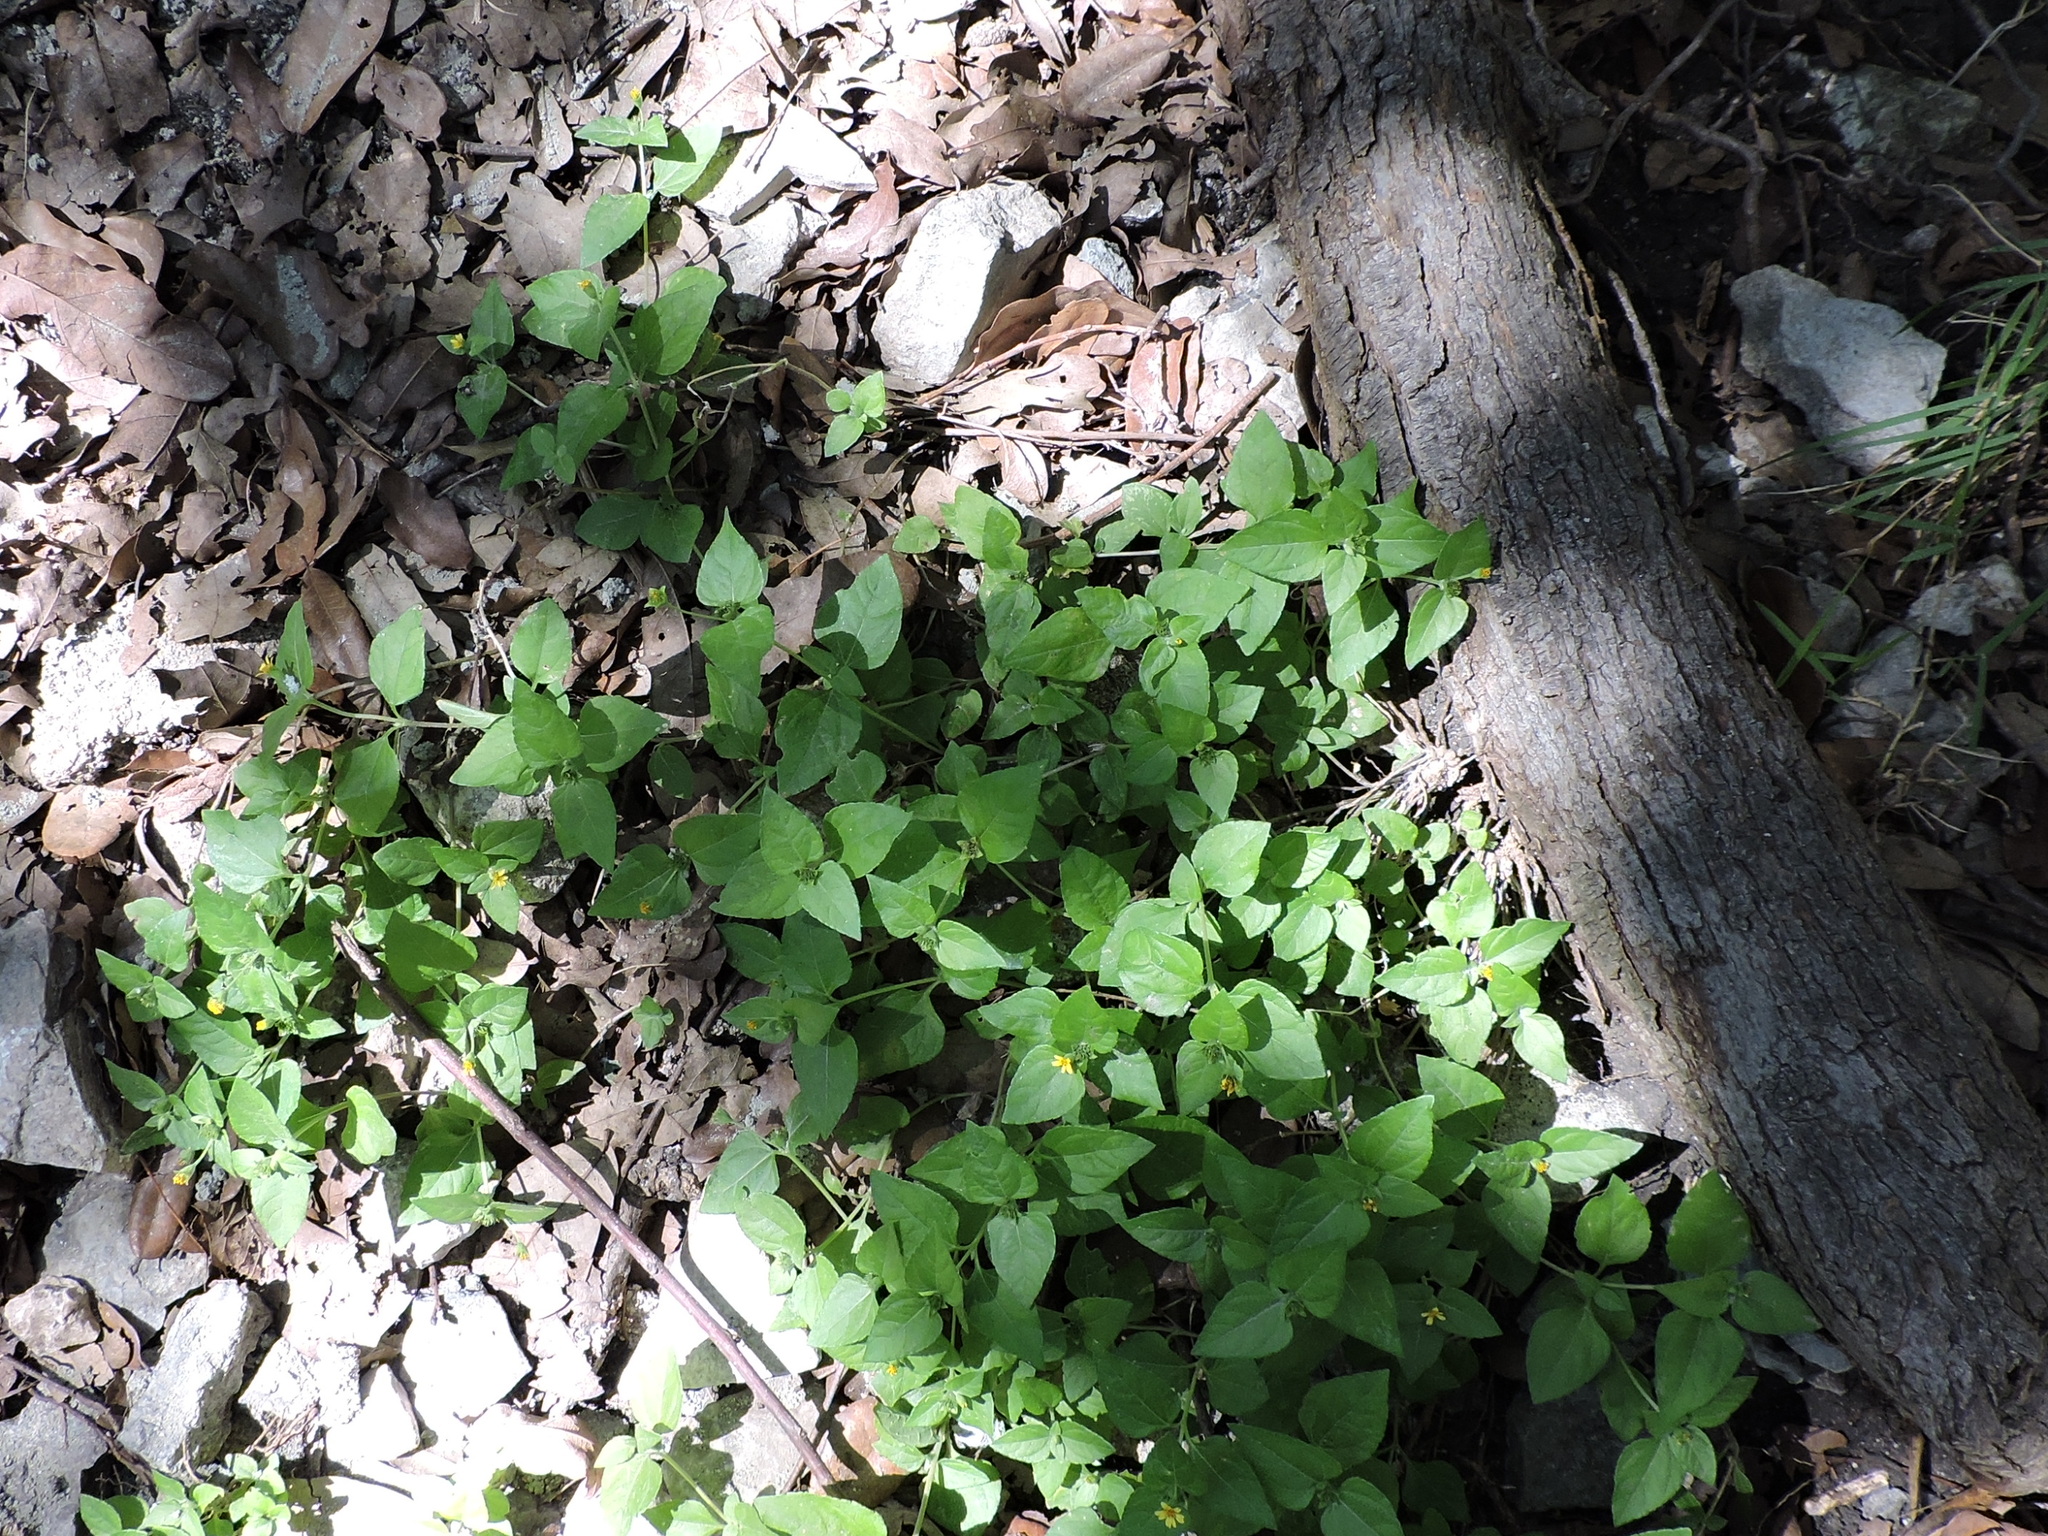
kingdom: Plantae
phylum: Tracheophyta
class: Magnoliopsida
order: Asterales
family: Asteraceae
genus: Calyptocarpus
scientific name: Calyptocarpus vialis
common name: Straggler daisy
